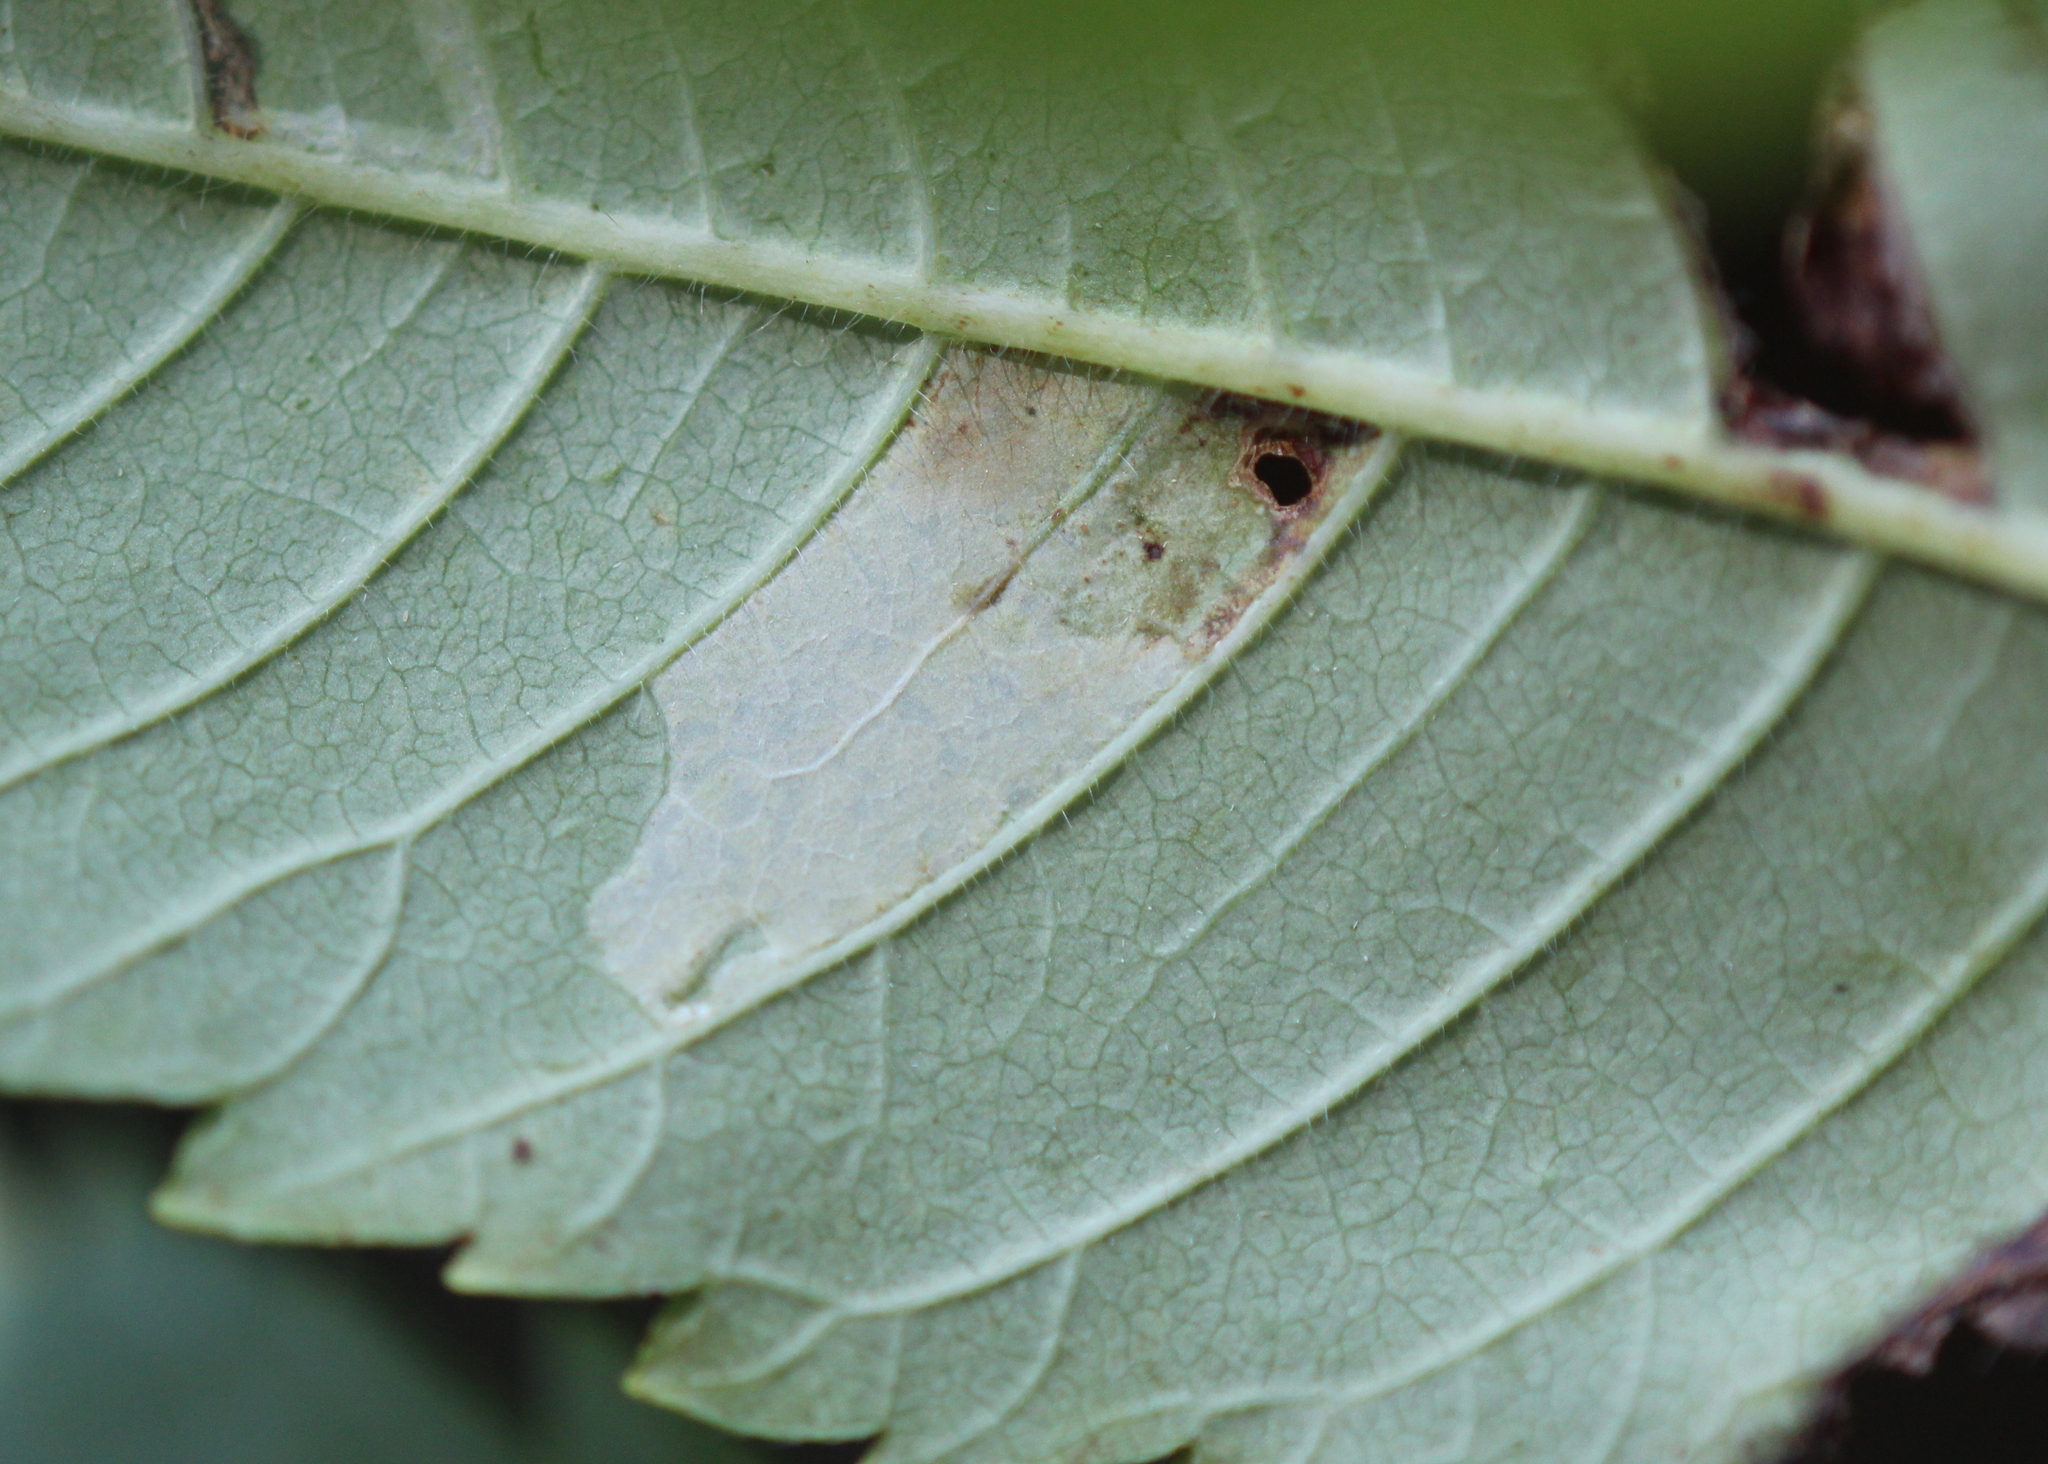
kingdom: Animalia
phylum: Arthropoda
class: Insecta
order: Lepidoptera
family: Gracillariidae
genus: Caloptilia
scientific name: Caloptilia rhoifoliella
